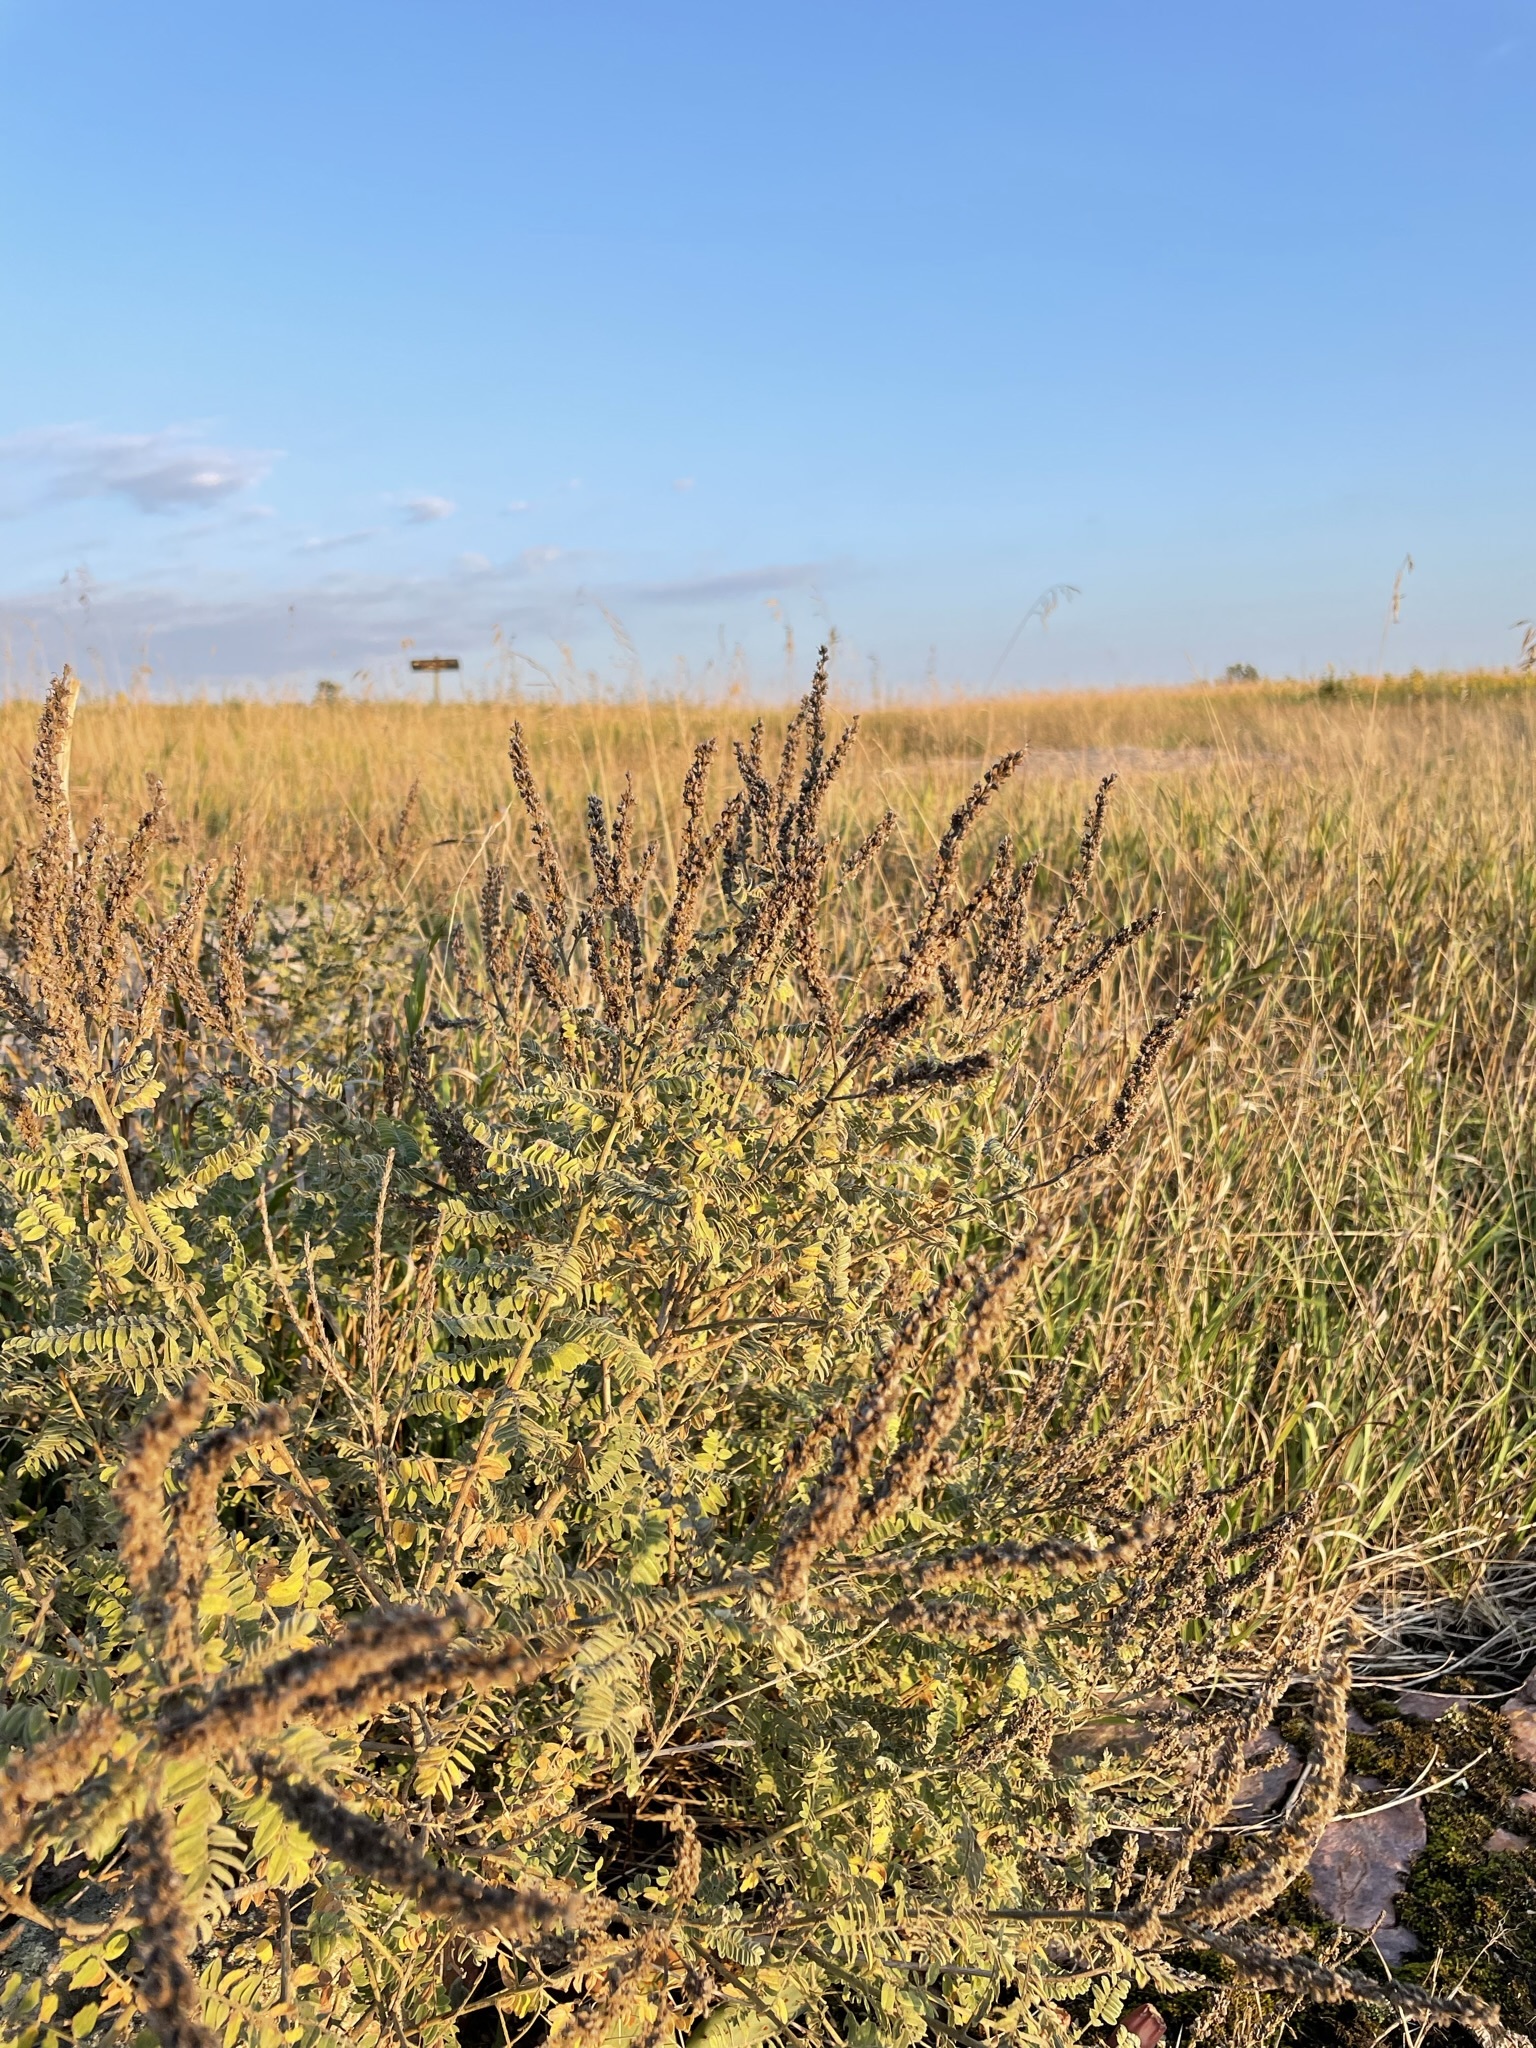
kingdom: Plantae
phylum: Tracheophyta
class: Magnoliopsida
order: Fabales
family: Fabaceae
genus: Amorpha
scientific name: Amorpha canescens
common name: Leadplant
